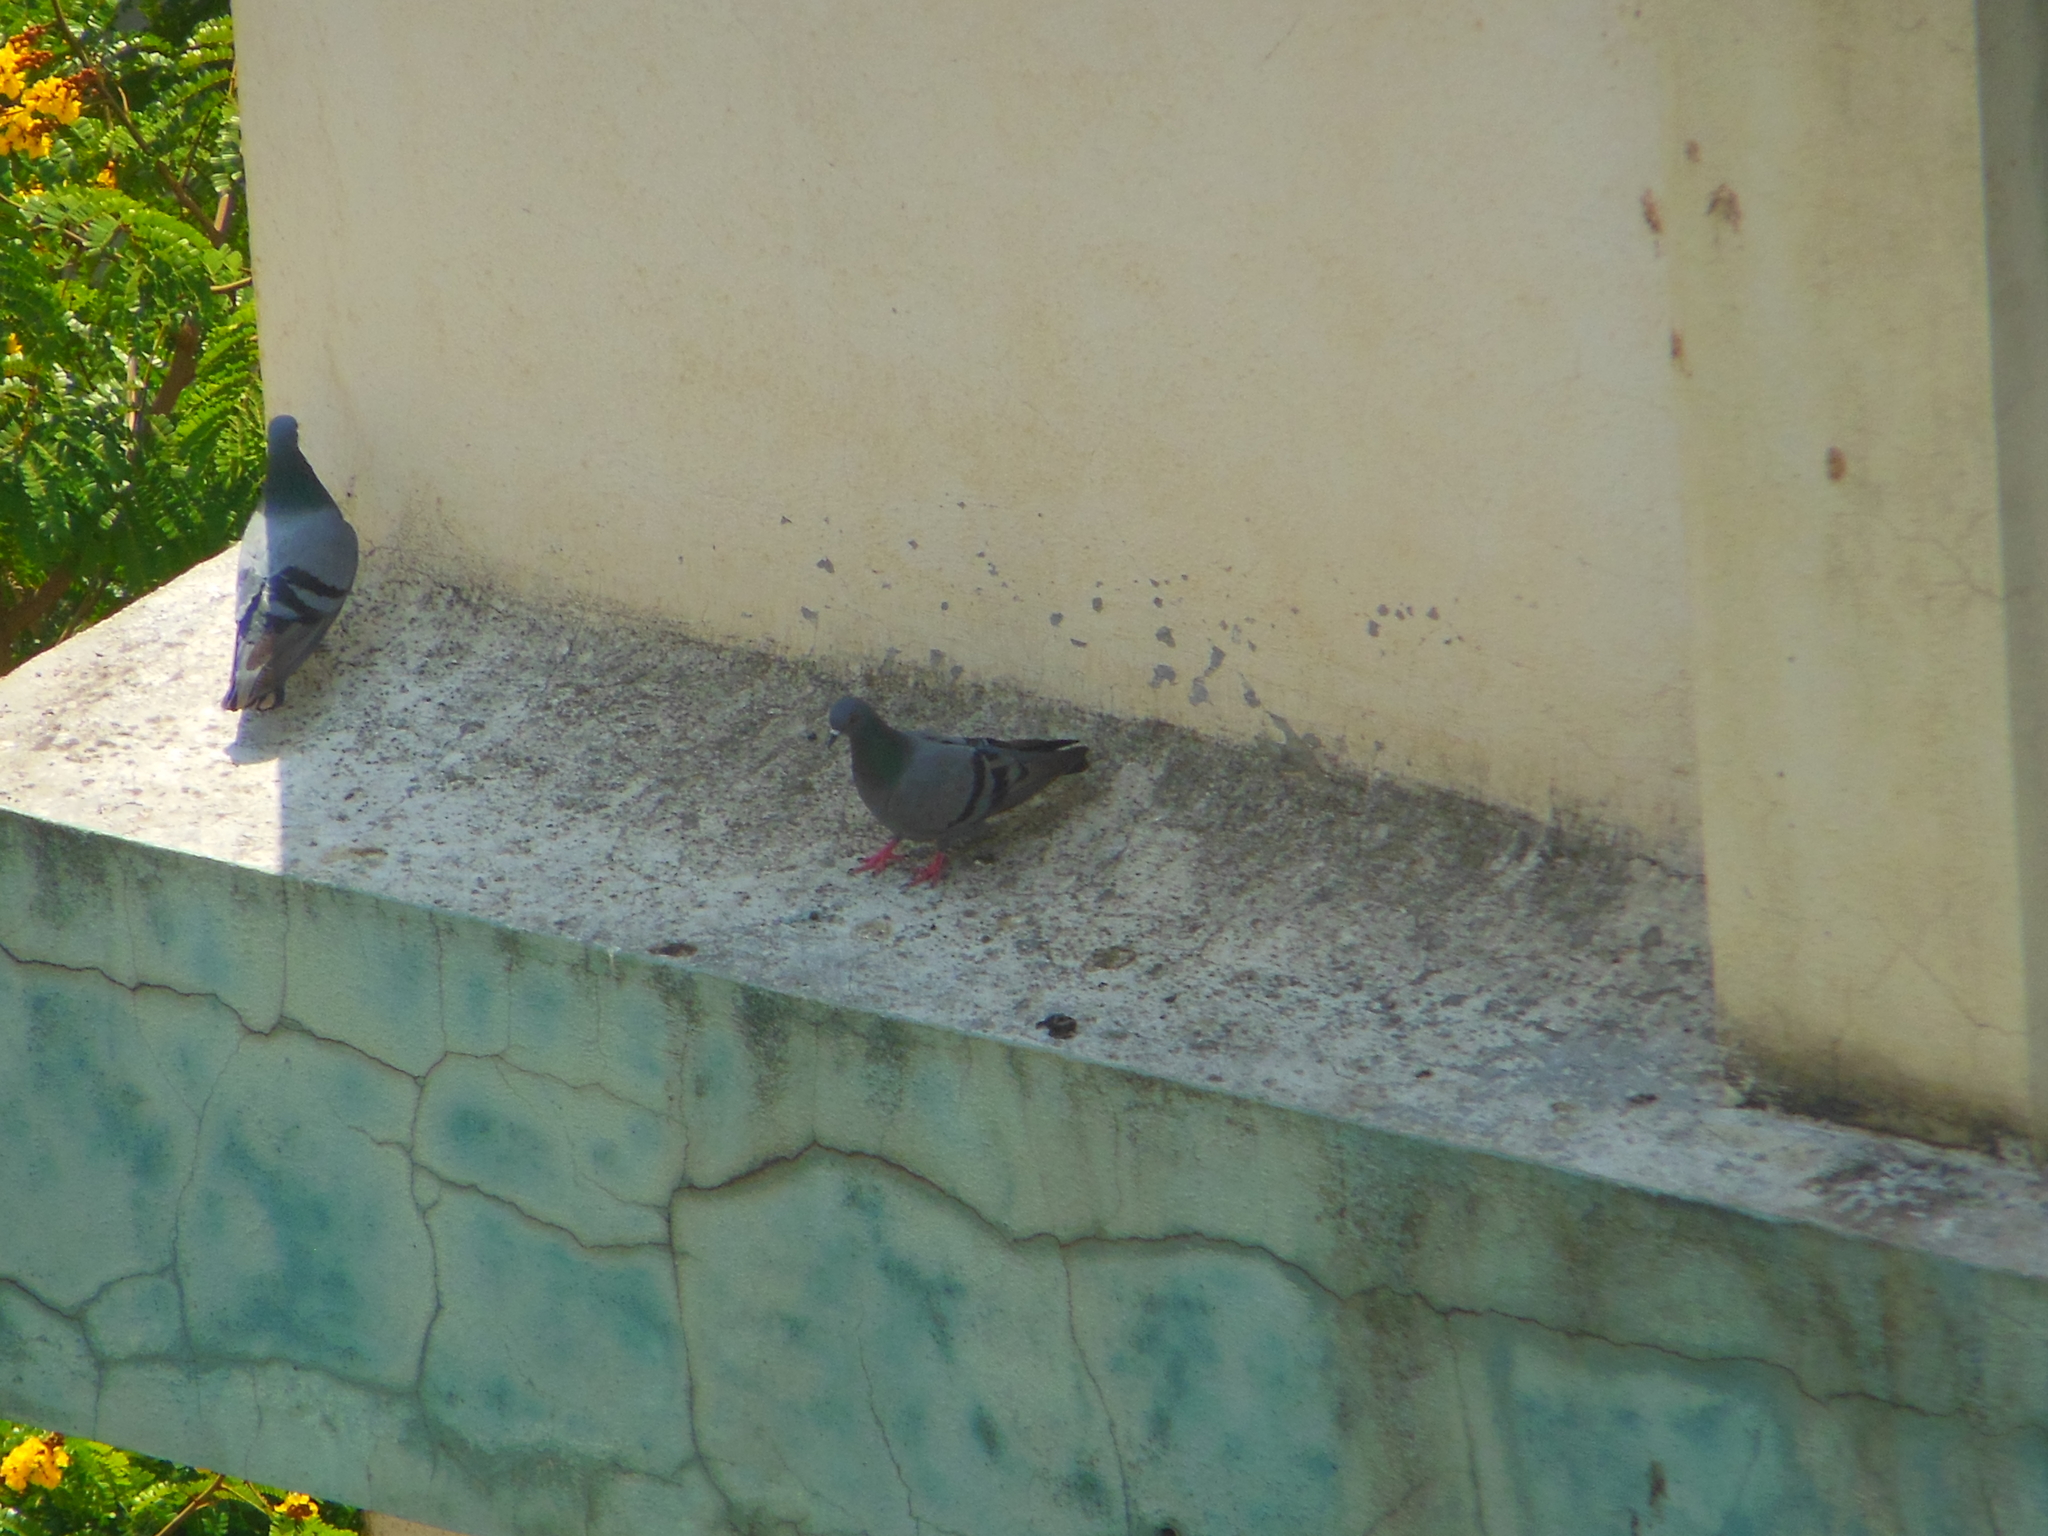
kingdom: Animalia
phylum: Chordata
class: Aves
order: Columbiformes
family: Columbidae
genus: Columba
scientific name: Columba livia
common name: Rock pigeon
